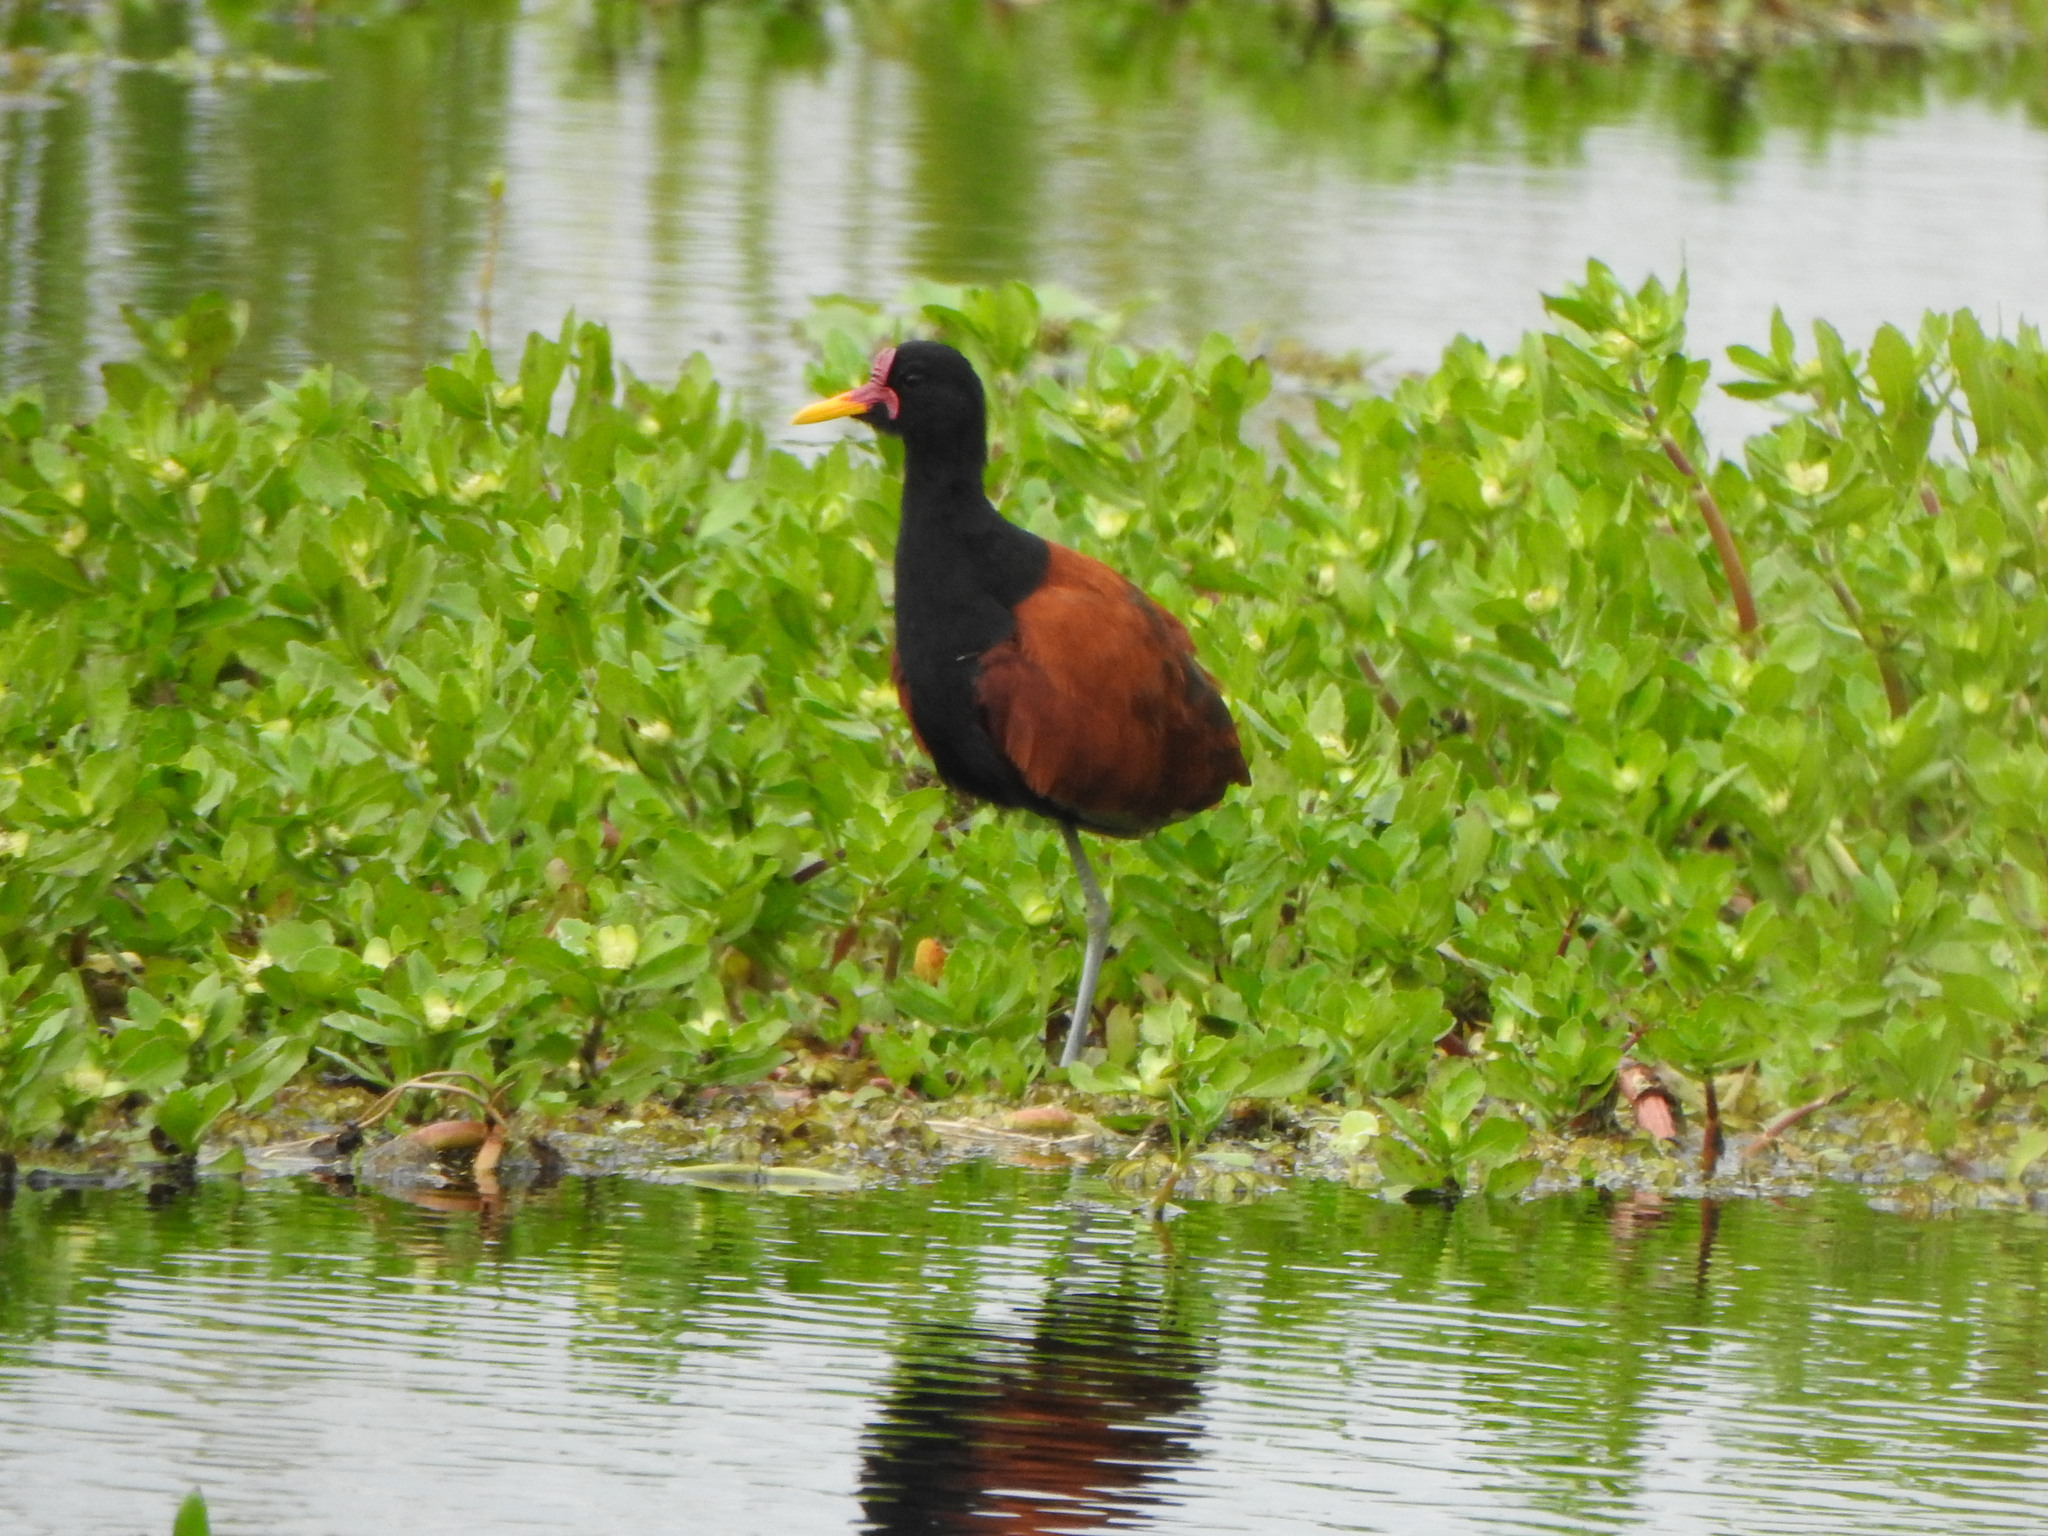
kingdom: Animalia
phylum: Chordata
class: Aves
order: Charadriiformes
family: Jacanidae
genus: Jacana
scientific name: Jacana jacana
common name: Wattled jacana
